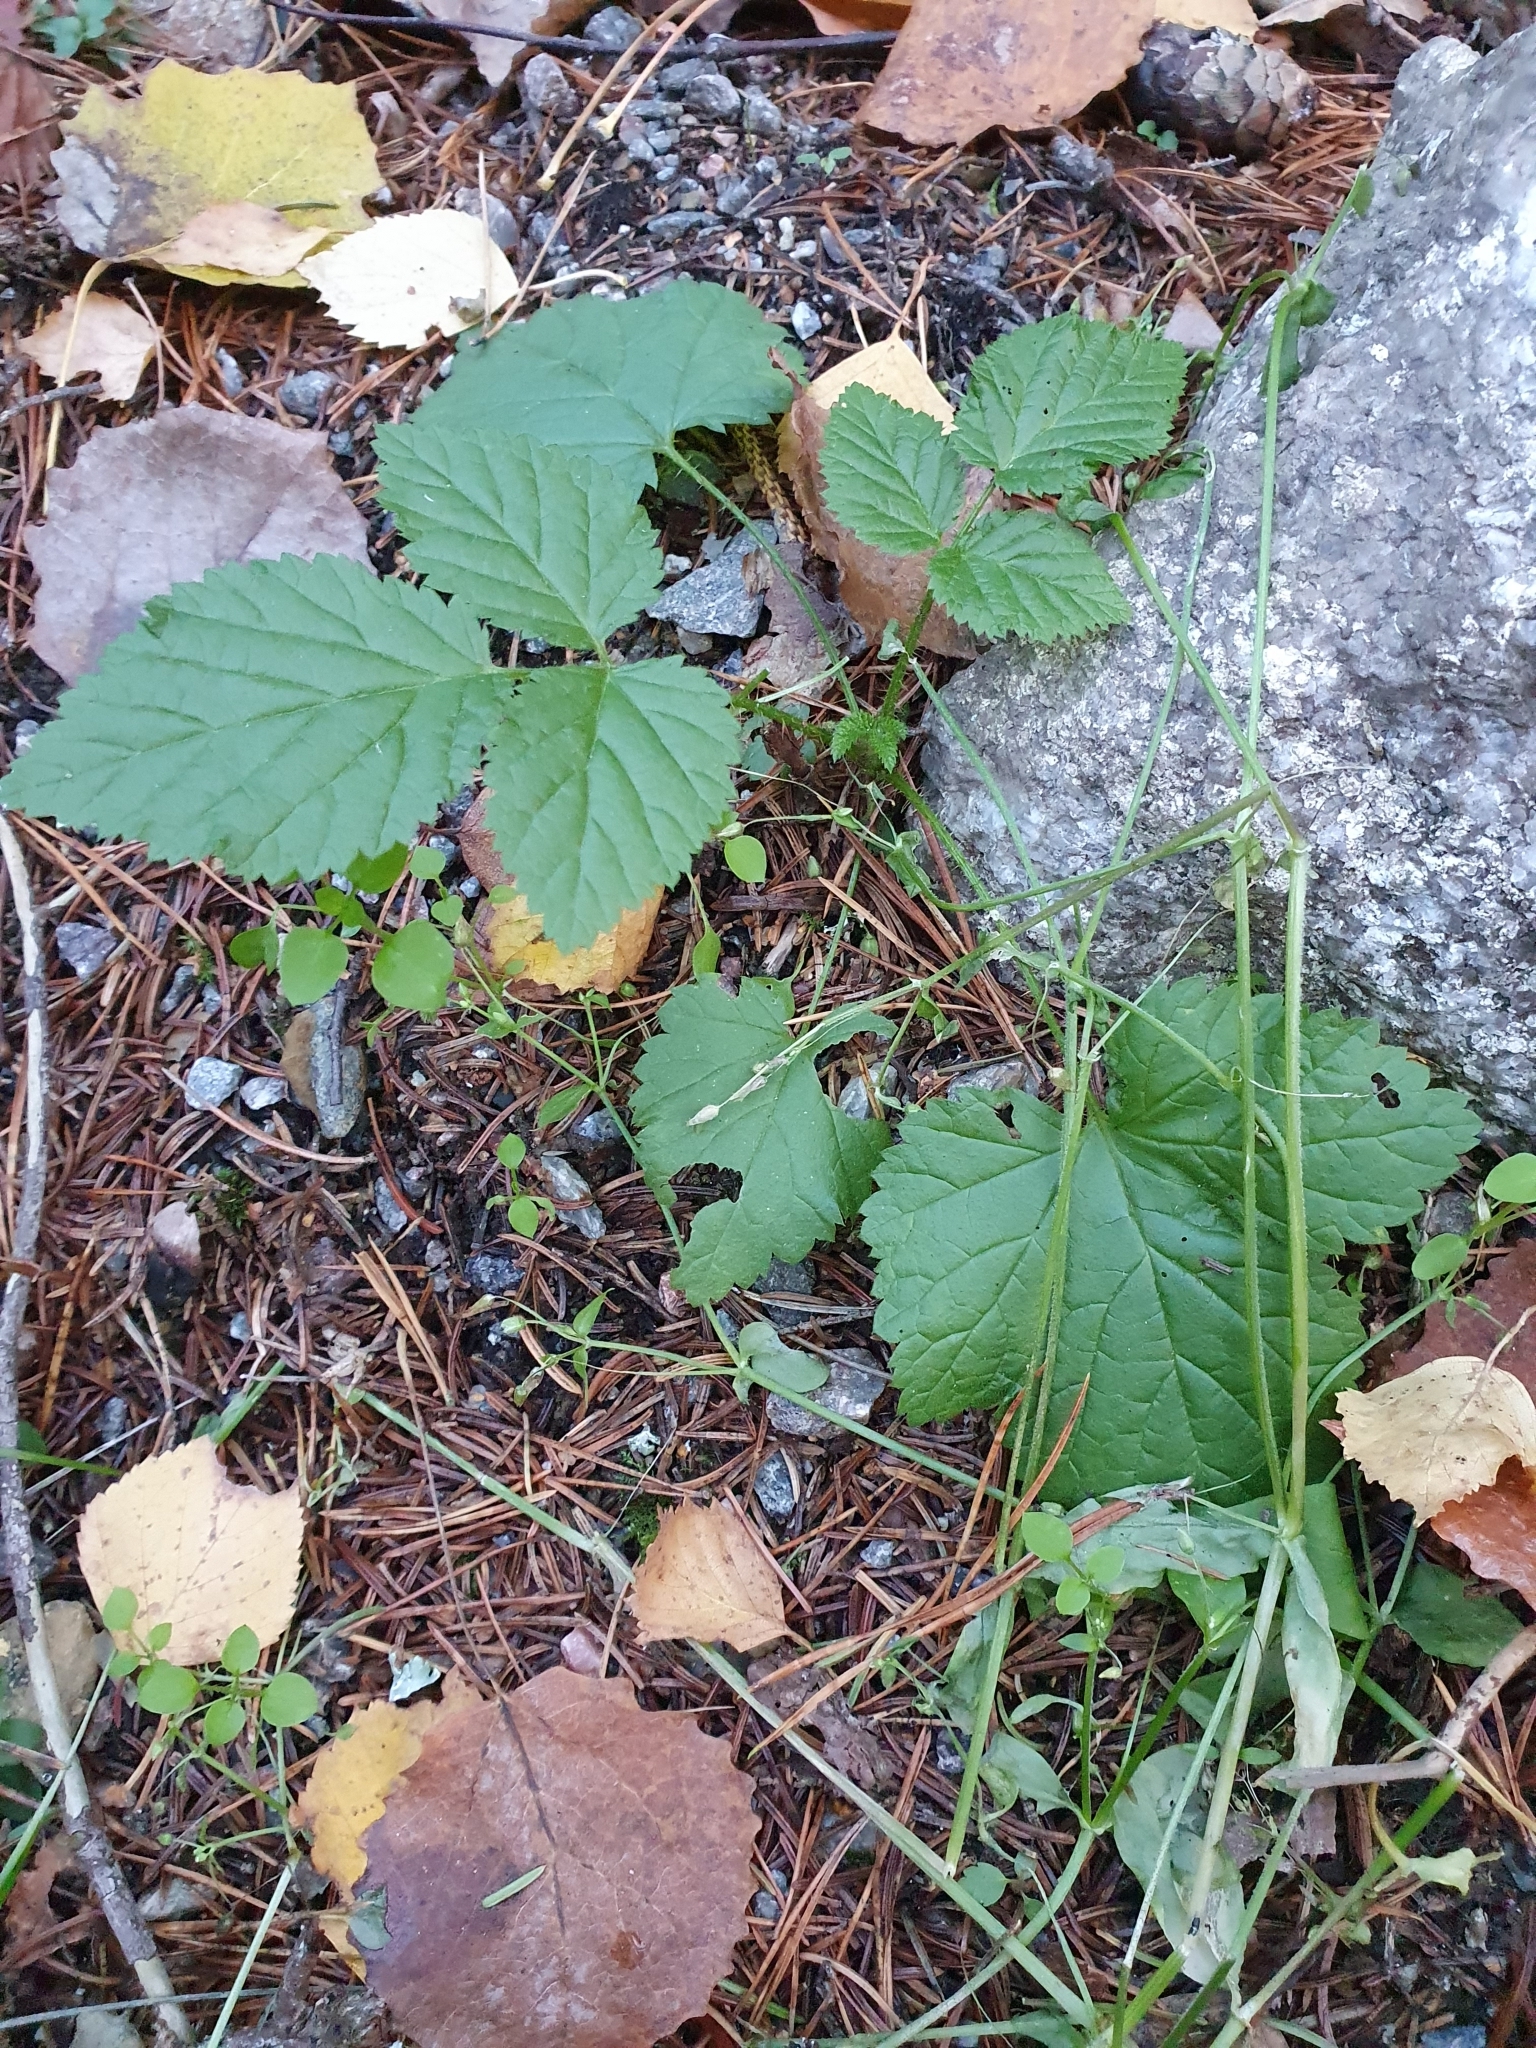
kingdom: Plantae
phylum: Tracheophyta
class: Magnoliopsida
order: Rosales
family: Rosaceae
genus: Rubus
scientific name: Rubus saxatilis
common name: Stone bramble
